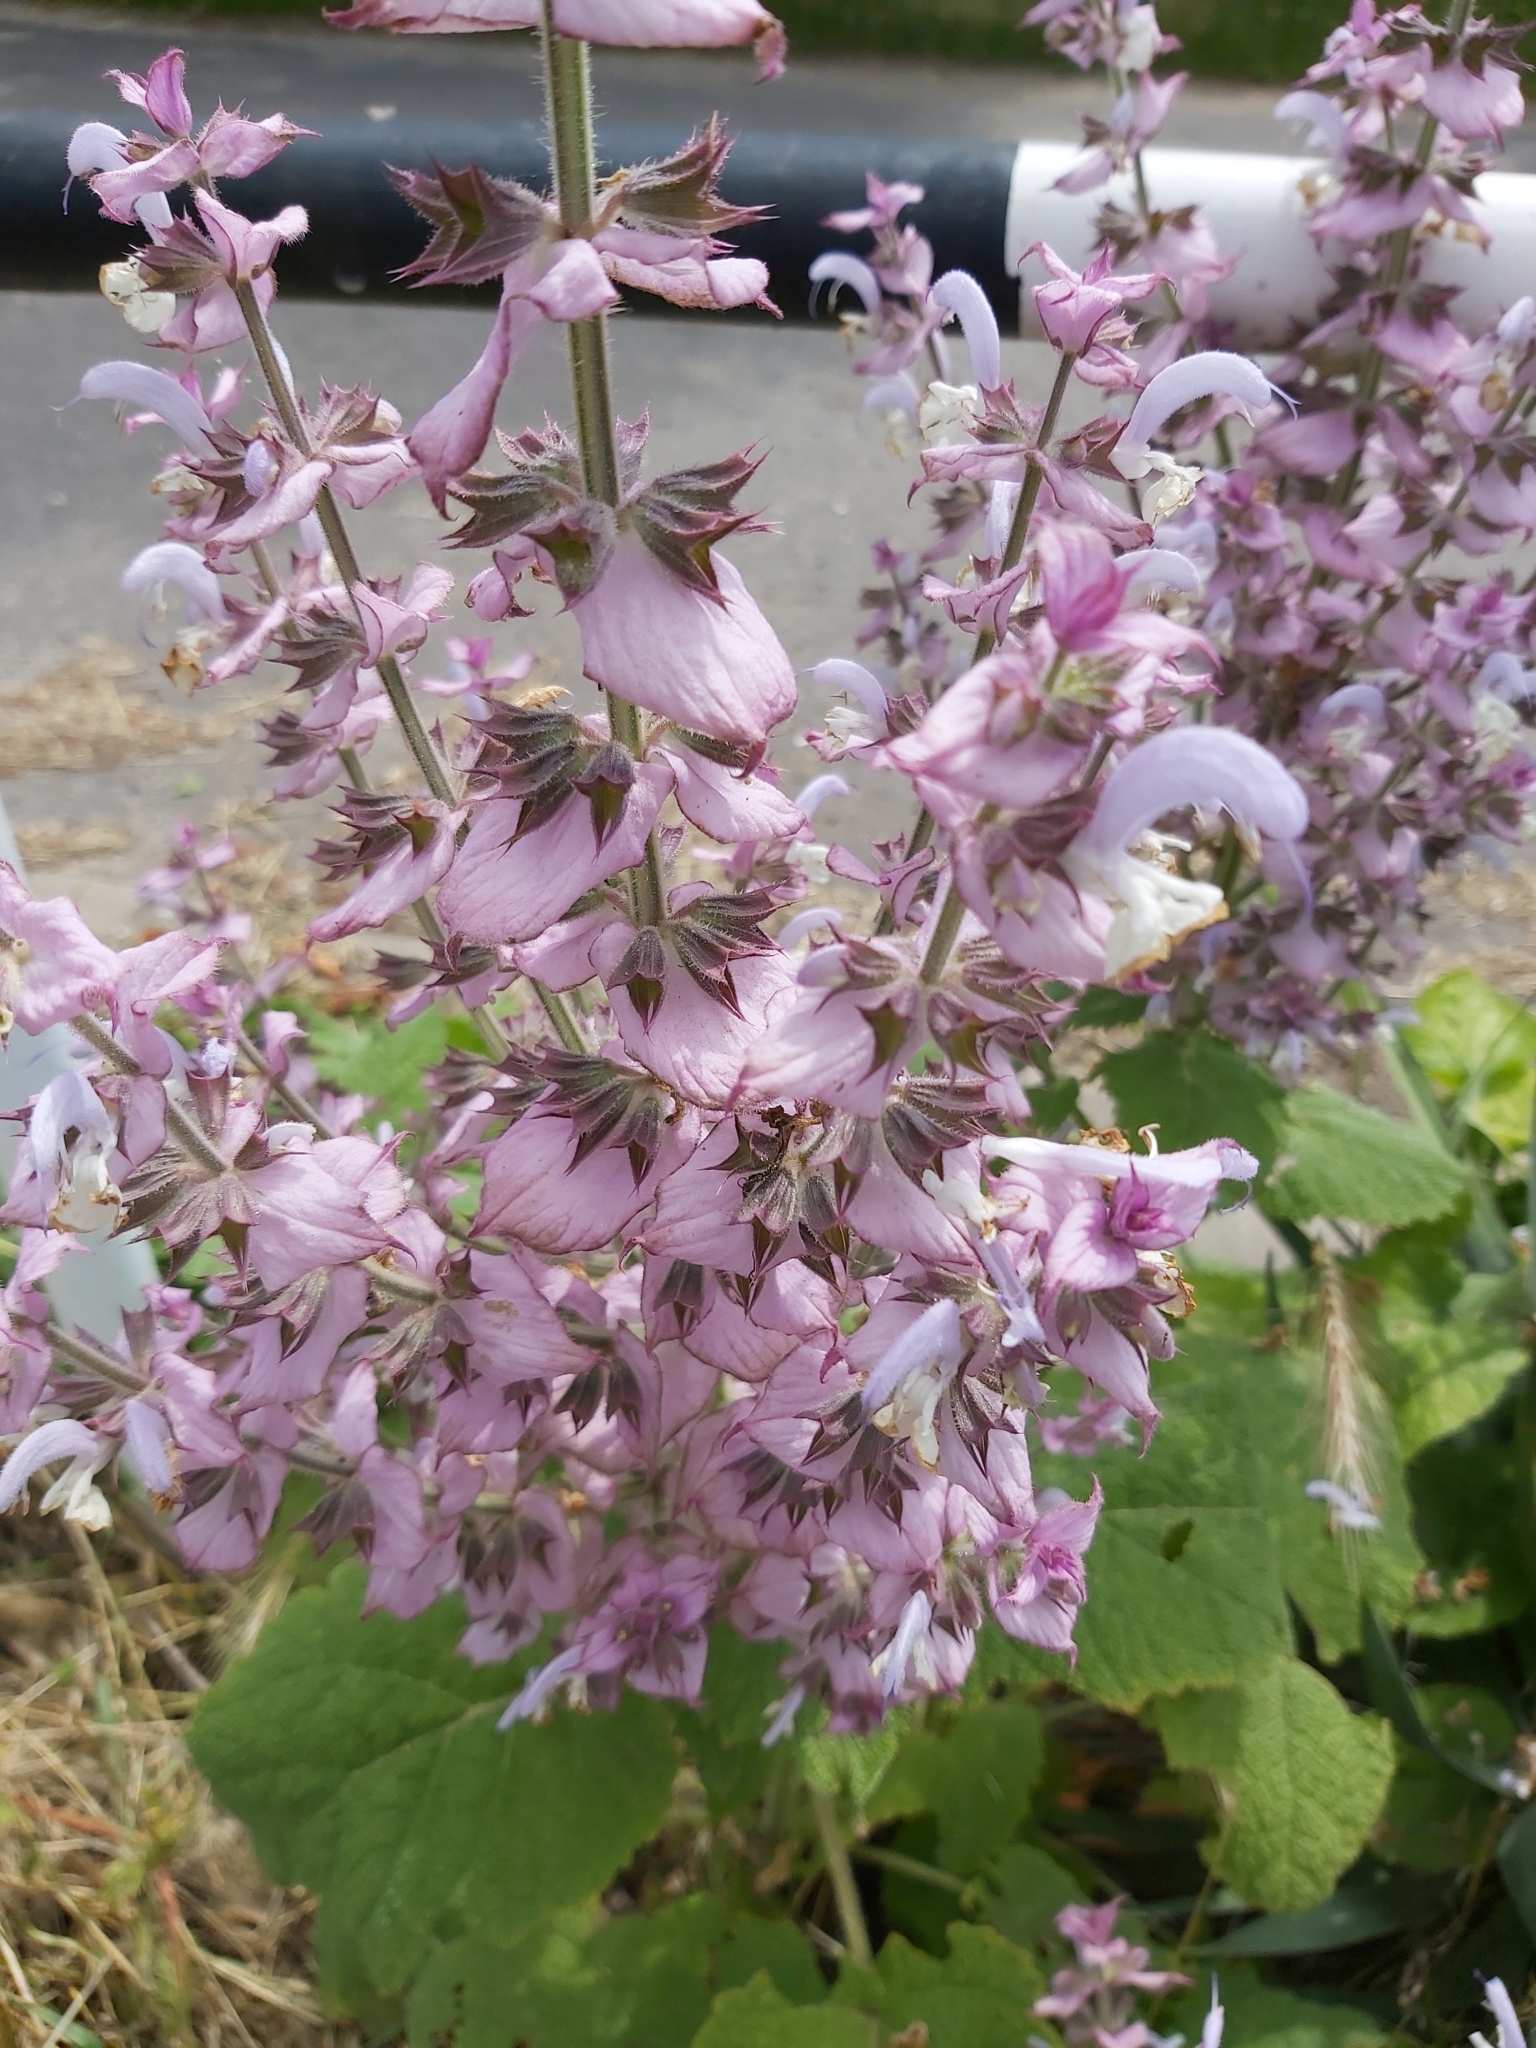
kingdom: Plantae
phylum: Tracheophyta
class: Magnoliopsida
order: Lamiales
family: Lamiaceae
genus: Salvia
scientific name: Salvia sclarea
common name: Clary
